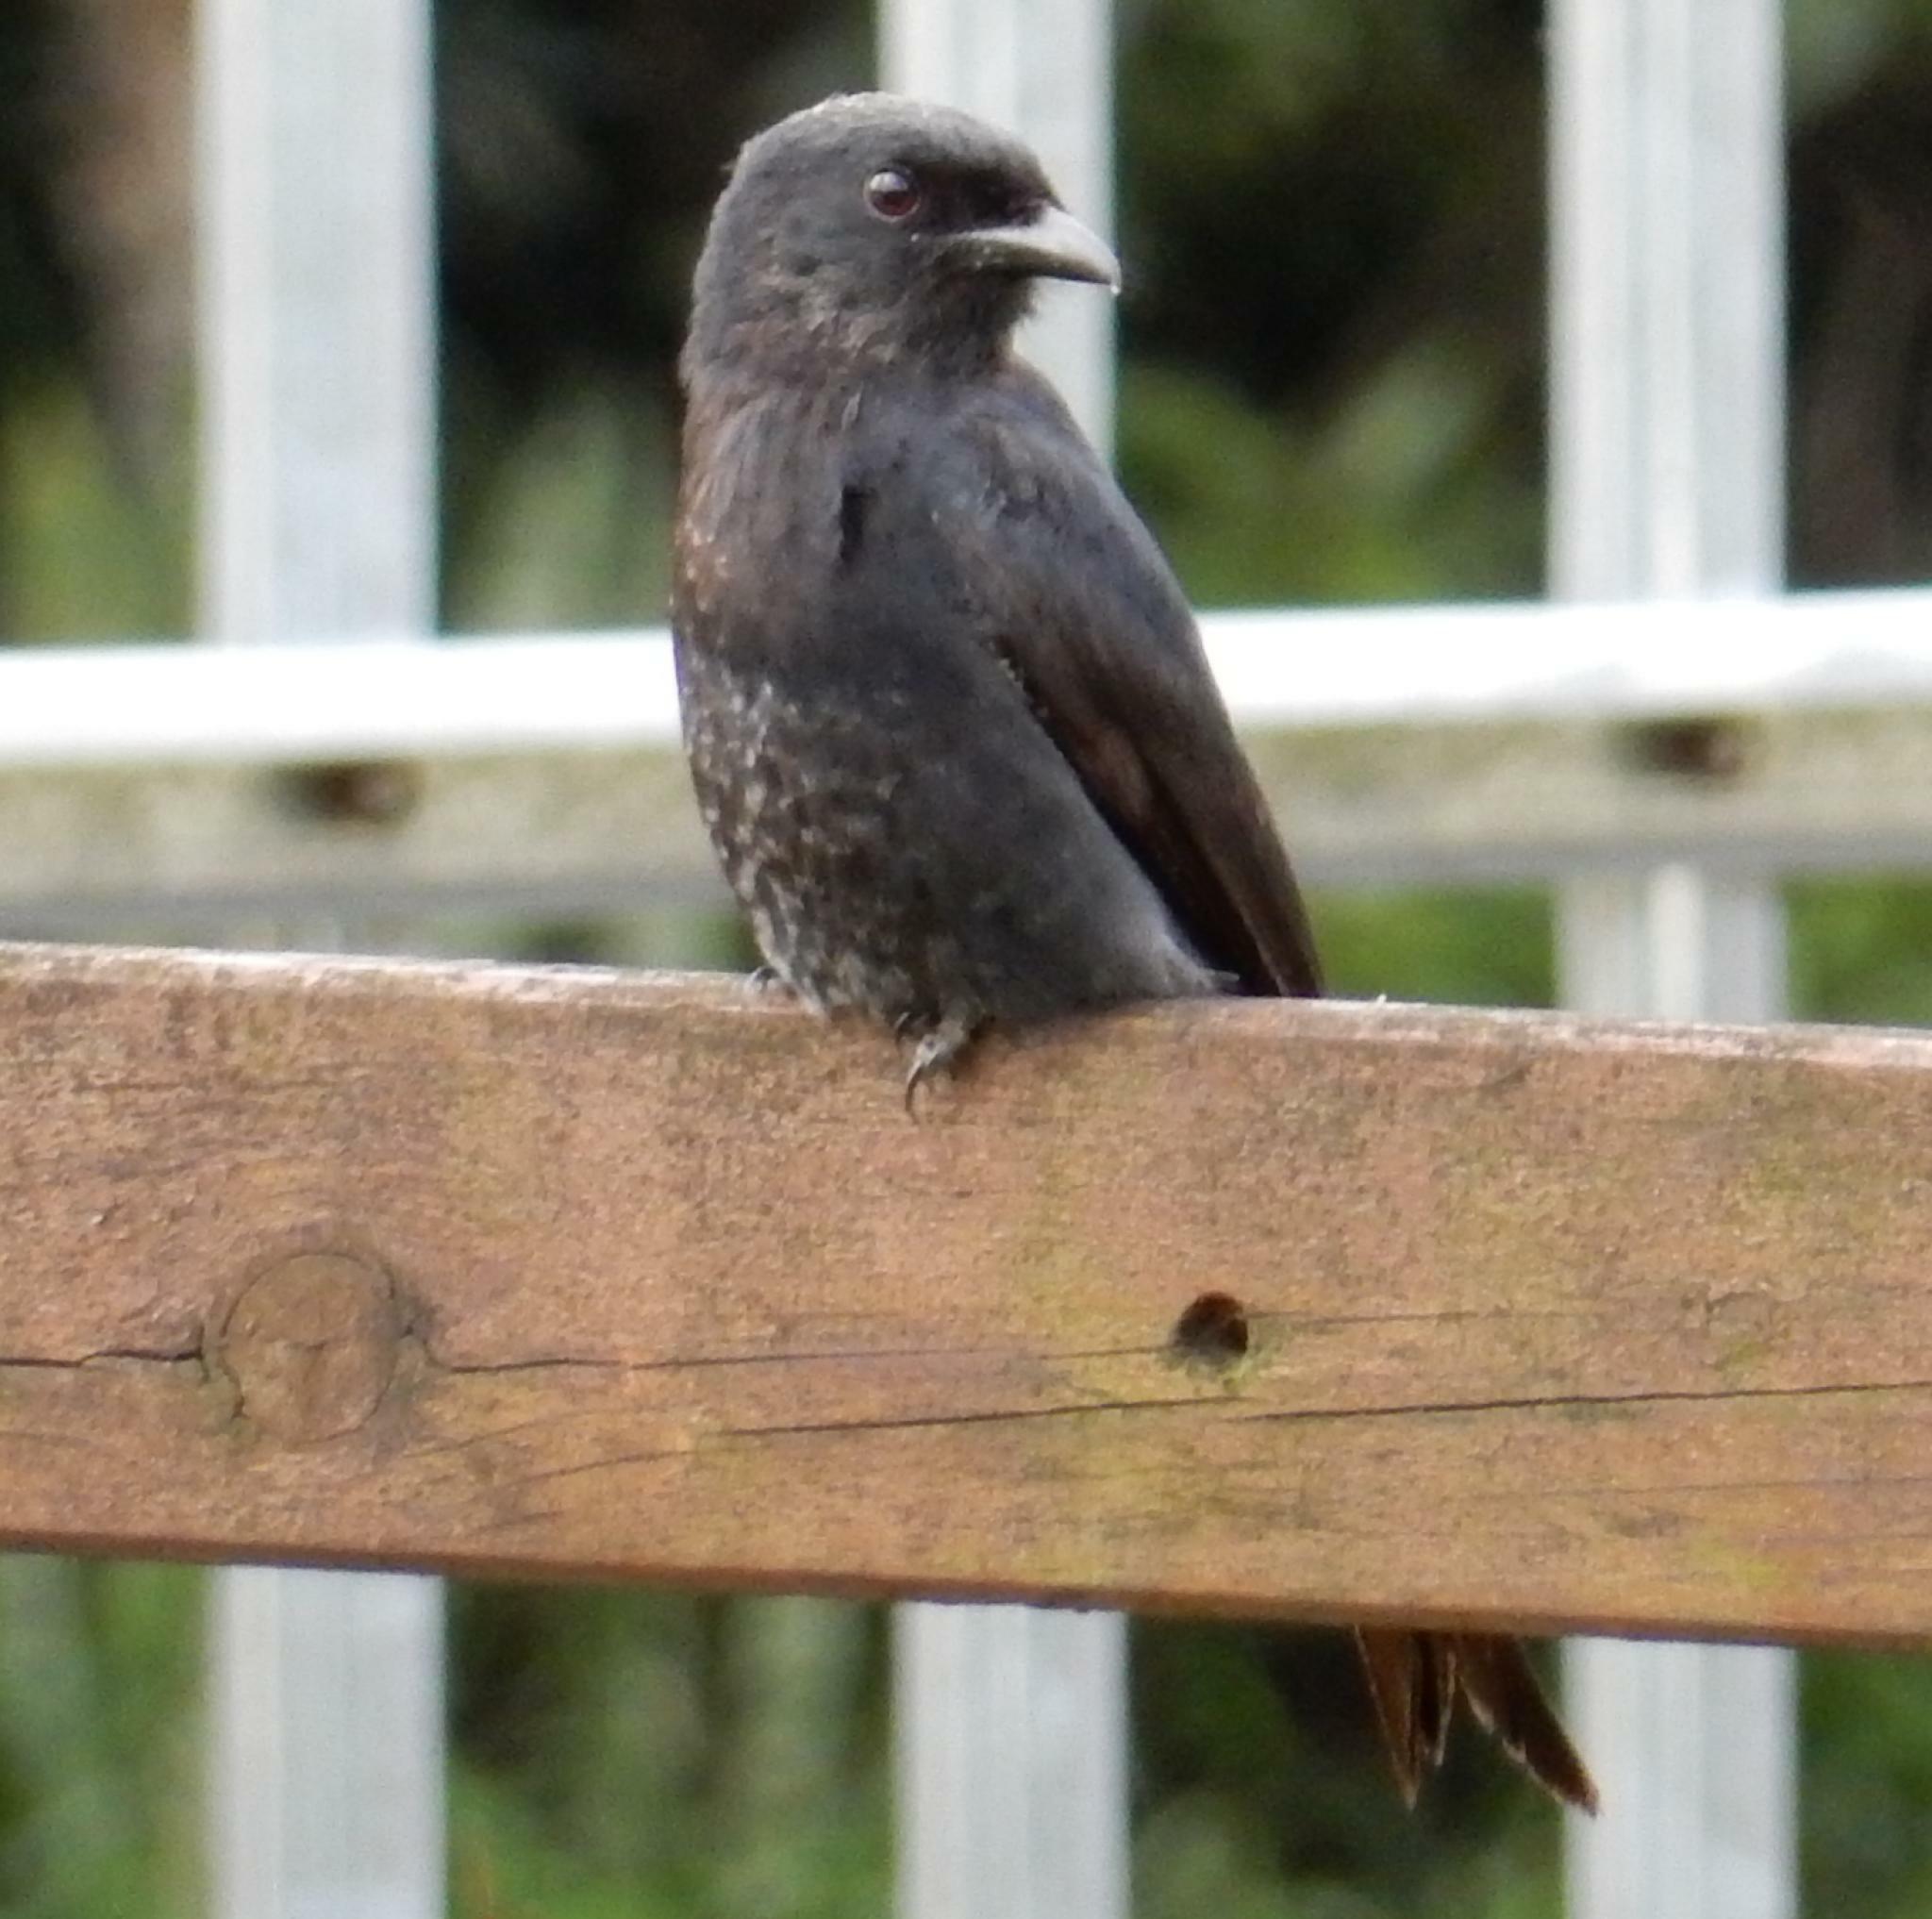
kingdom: Animalia
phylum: Chordata
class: Aves
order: Passeriformes
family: Dicruridae
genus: Dicrurus
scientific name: Dicrurus adsimilis
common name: Fork-tailed drongo
